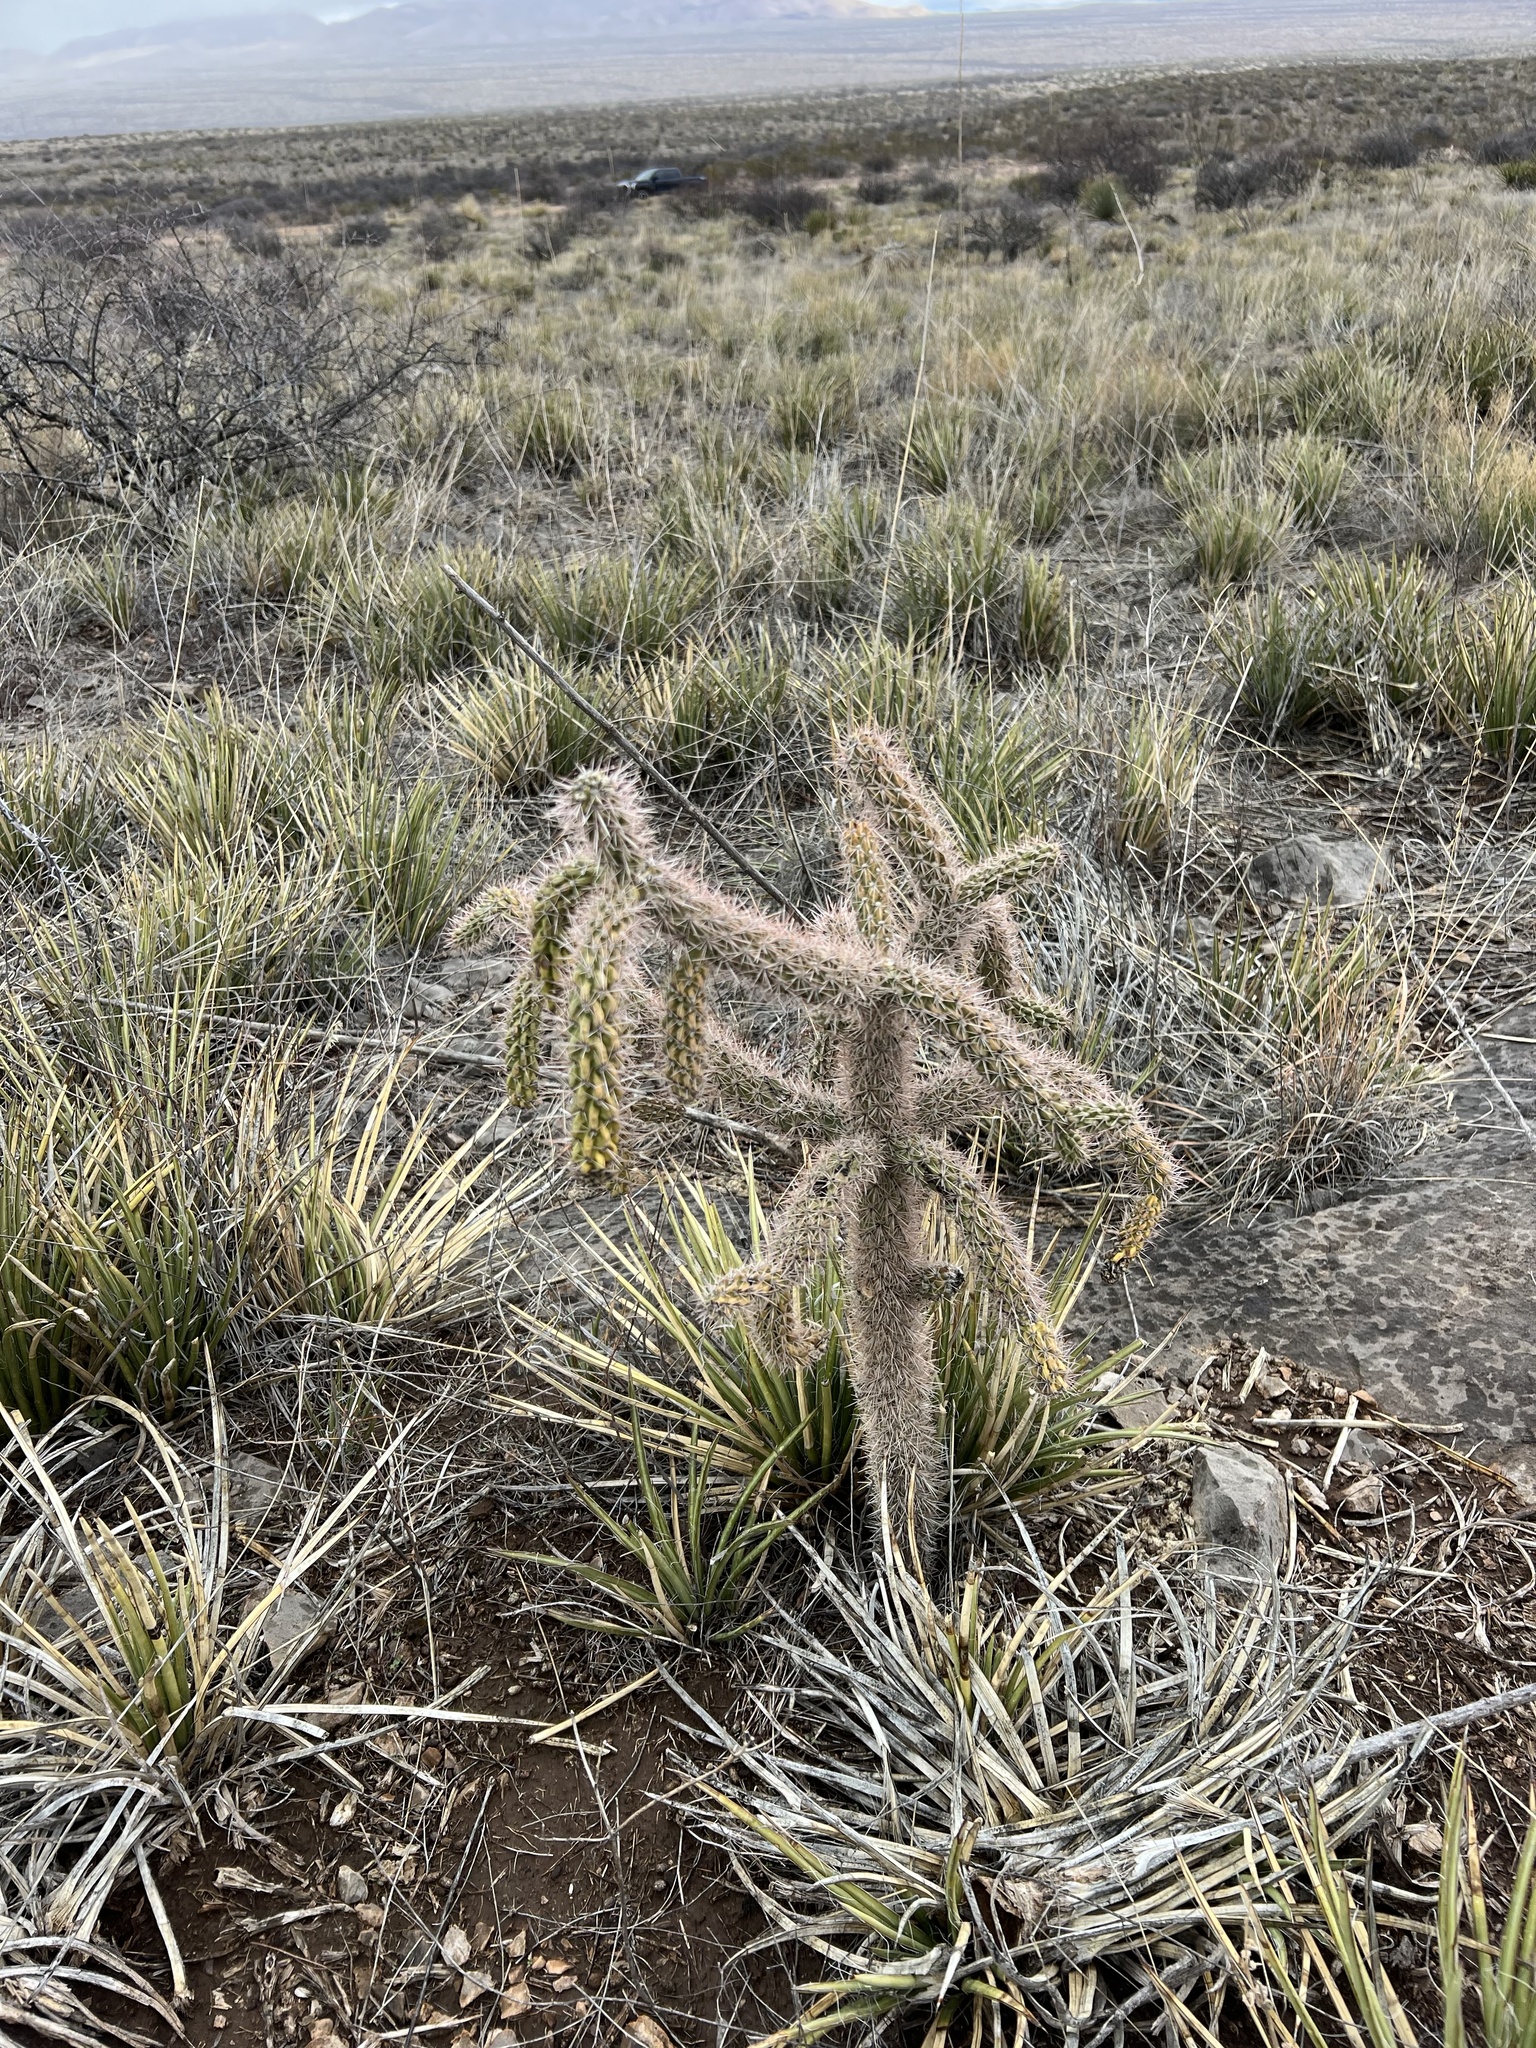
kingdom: Plantae
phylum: Tracheophyta
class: Magnoliopsida
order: Caryophyllales
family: Cactaceae
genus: Cylindropuntia
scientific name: Cylindropuntia imbricata
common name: Candelabrum cactus
